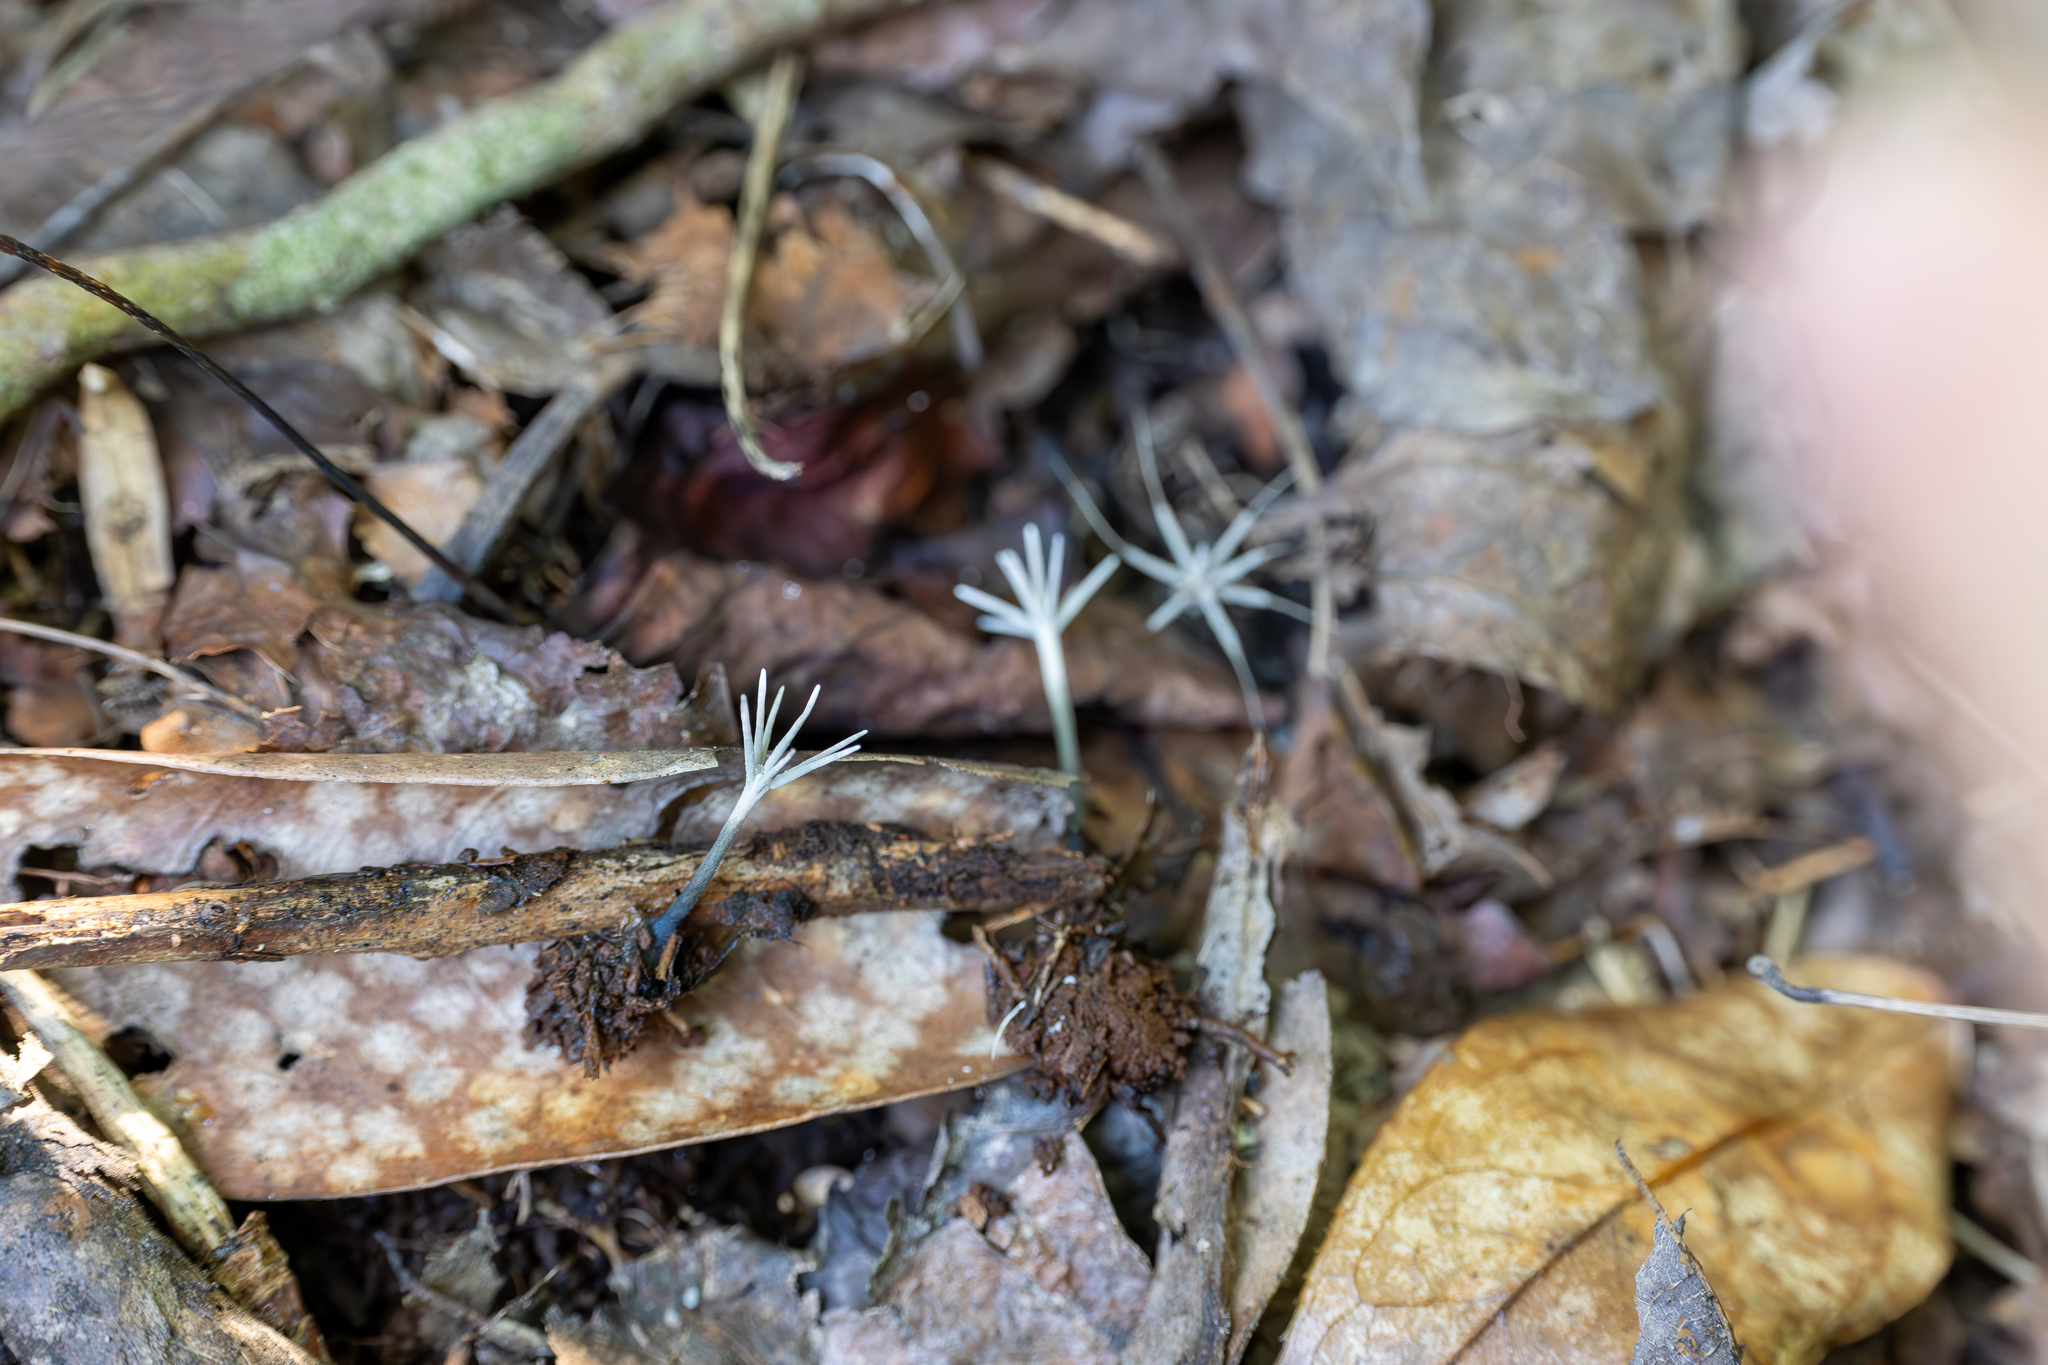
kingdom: Fungi
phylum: Ascomycota
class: Sordariomycetes
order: Xylariales
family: Xylariaceae
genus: Xylaria
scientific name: Xylaria tentaculata
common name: Fairy sparklers
